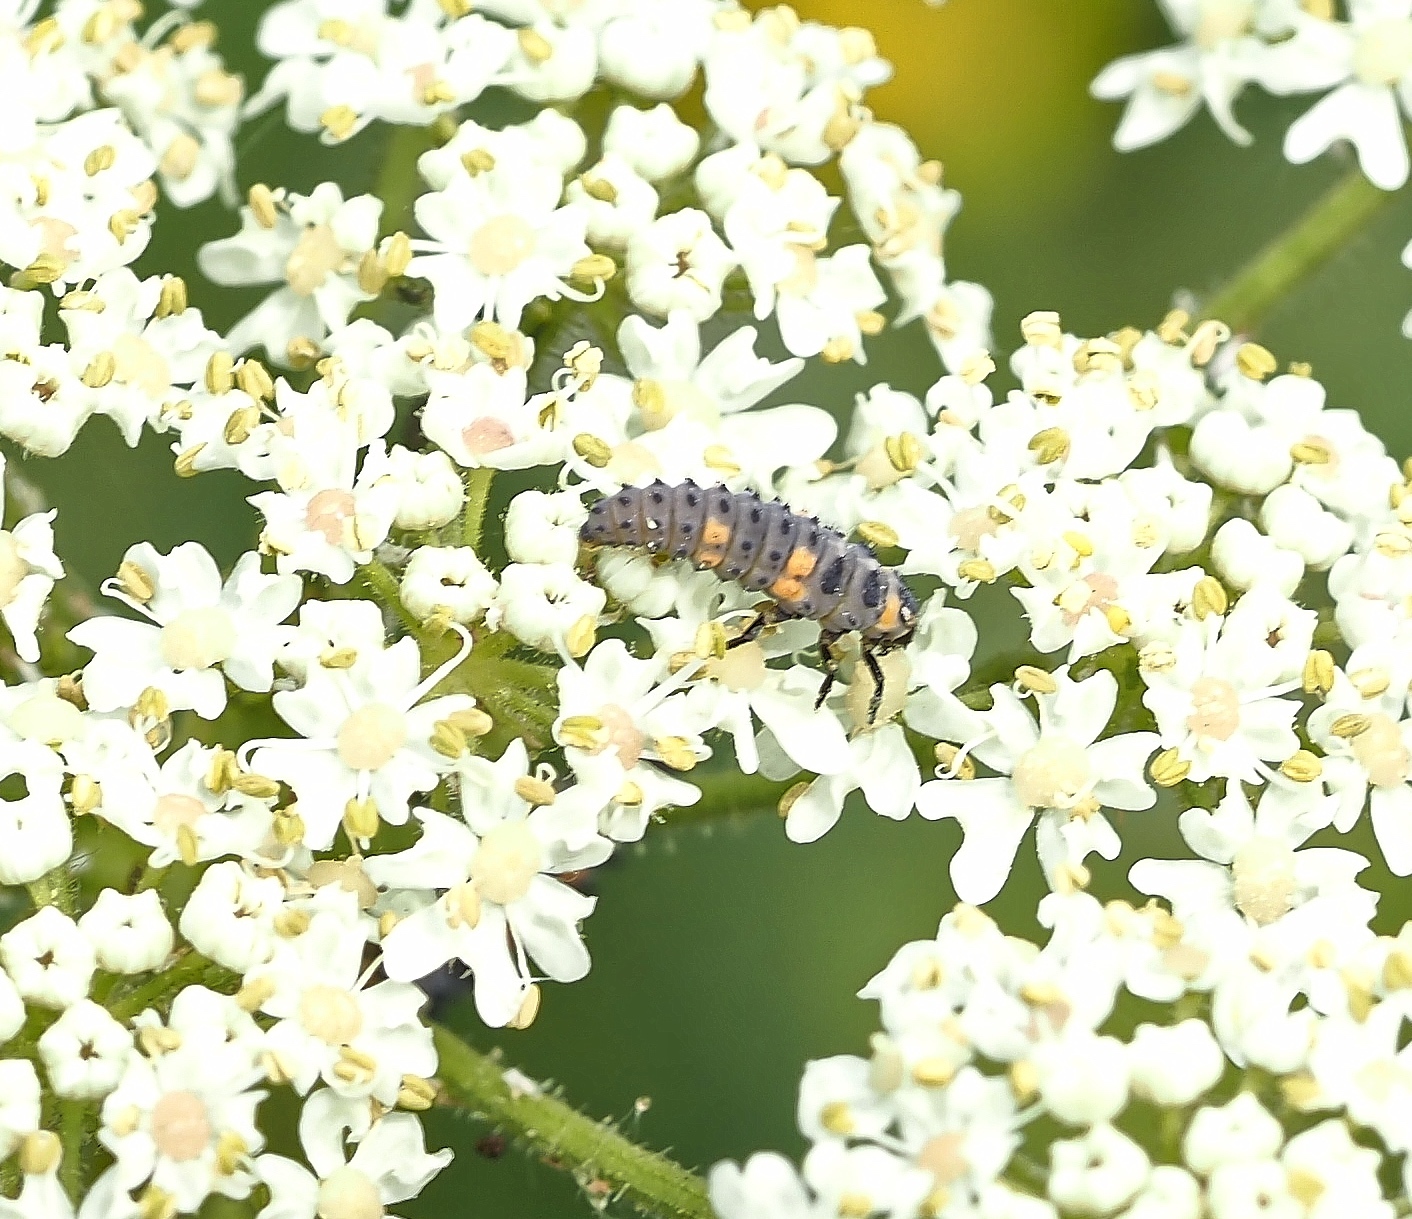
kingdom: Animalia
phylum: Arthropoda
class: Insecta
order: Coleoptera
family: Coccinellidae
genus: Coccinella
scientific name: Coccinella septempunctata
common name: Sevenspotted lady beetle
